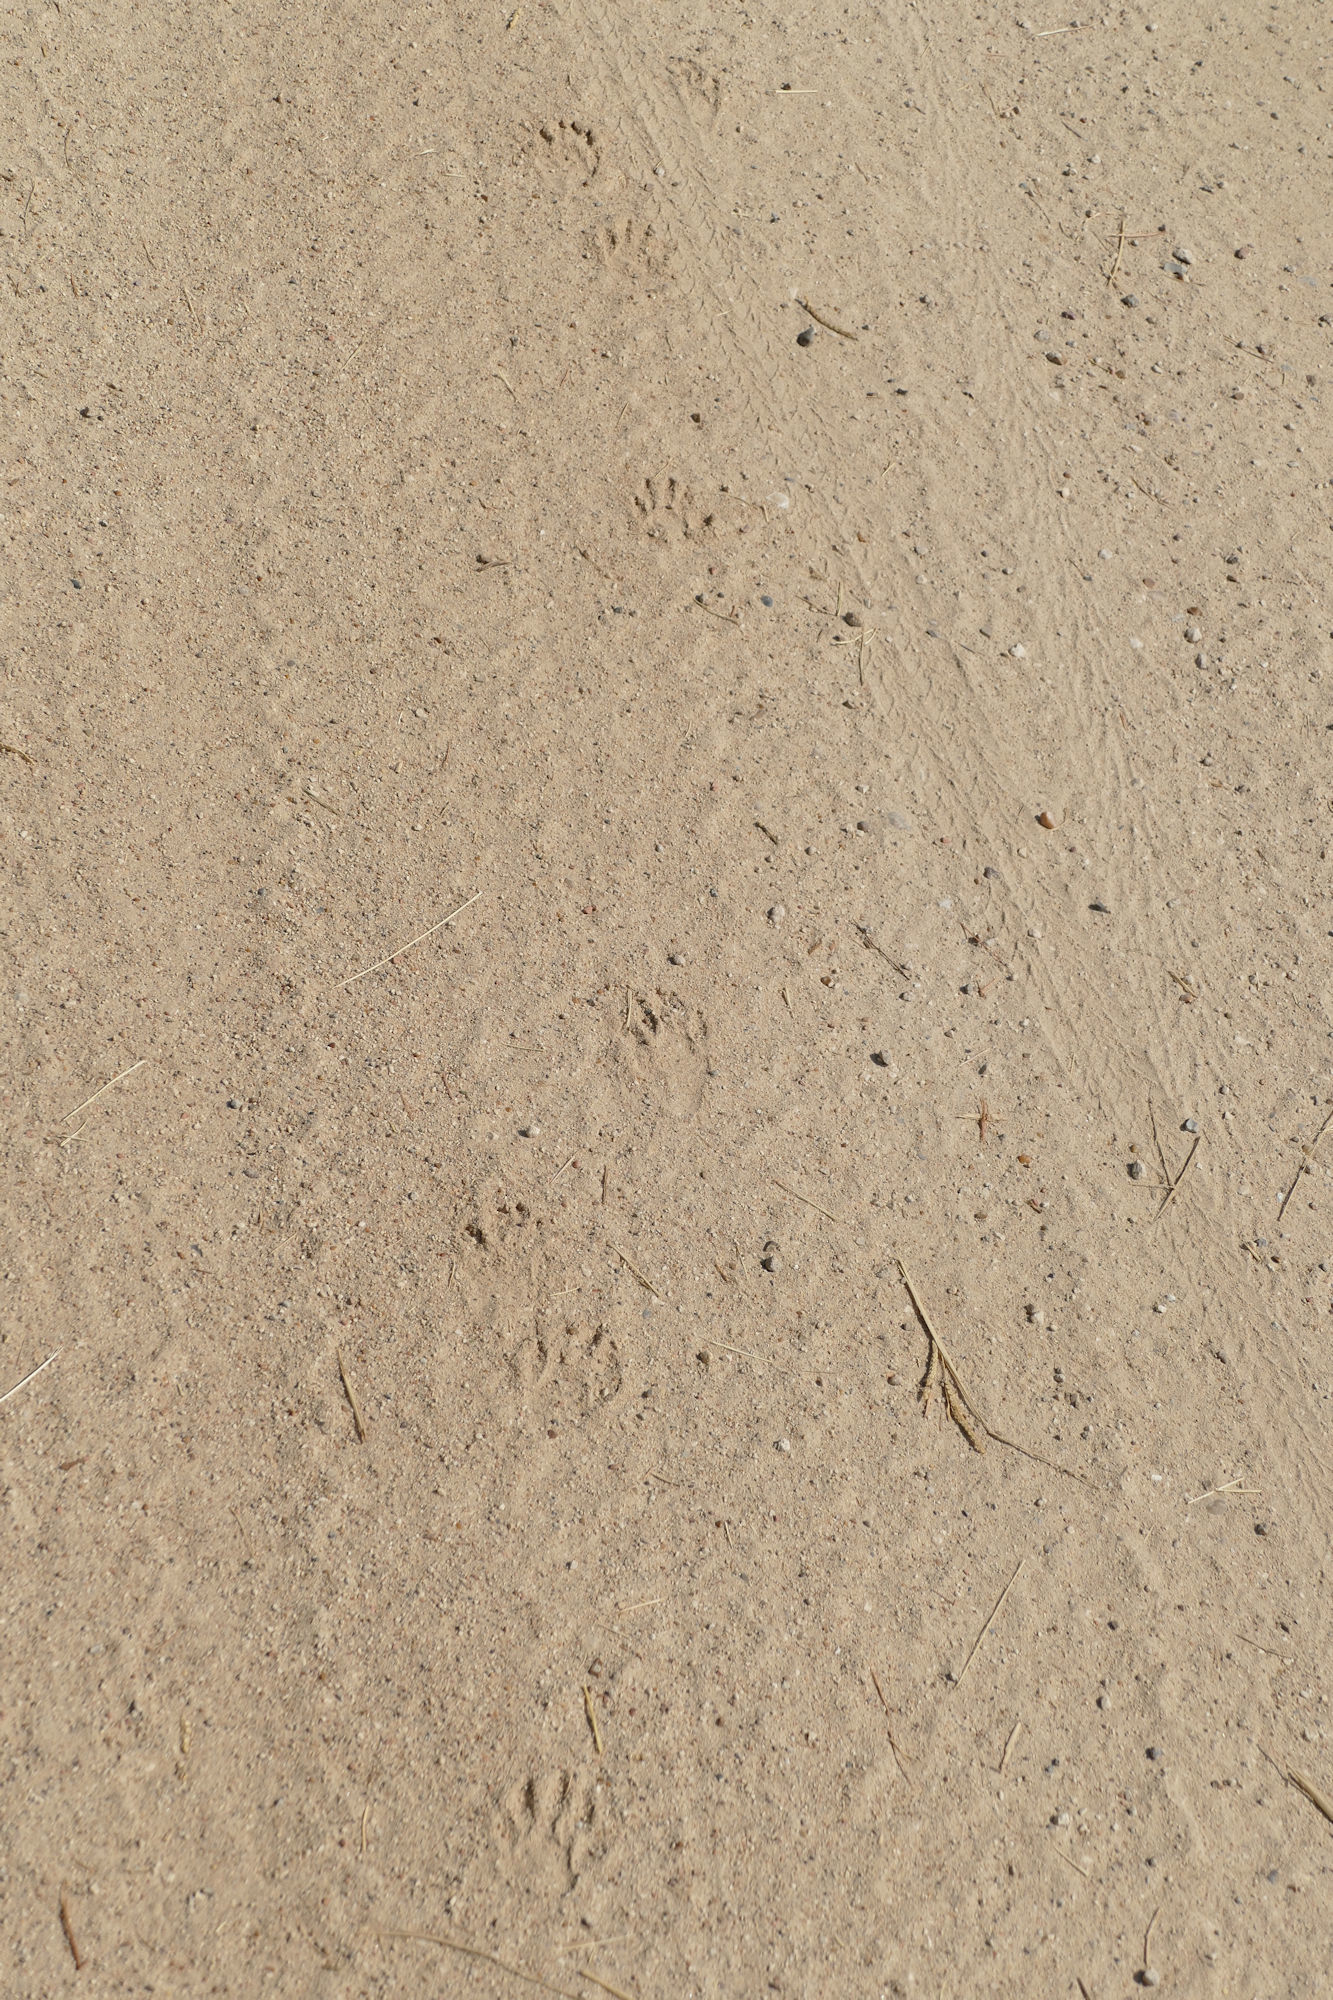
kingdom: Animalia
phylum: Chordata
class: Mammalia
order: Carnivora
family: Procyonidae
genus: Procyon
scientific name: Procyon lotor
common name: Raccoon
